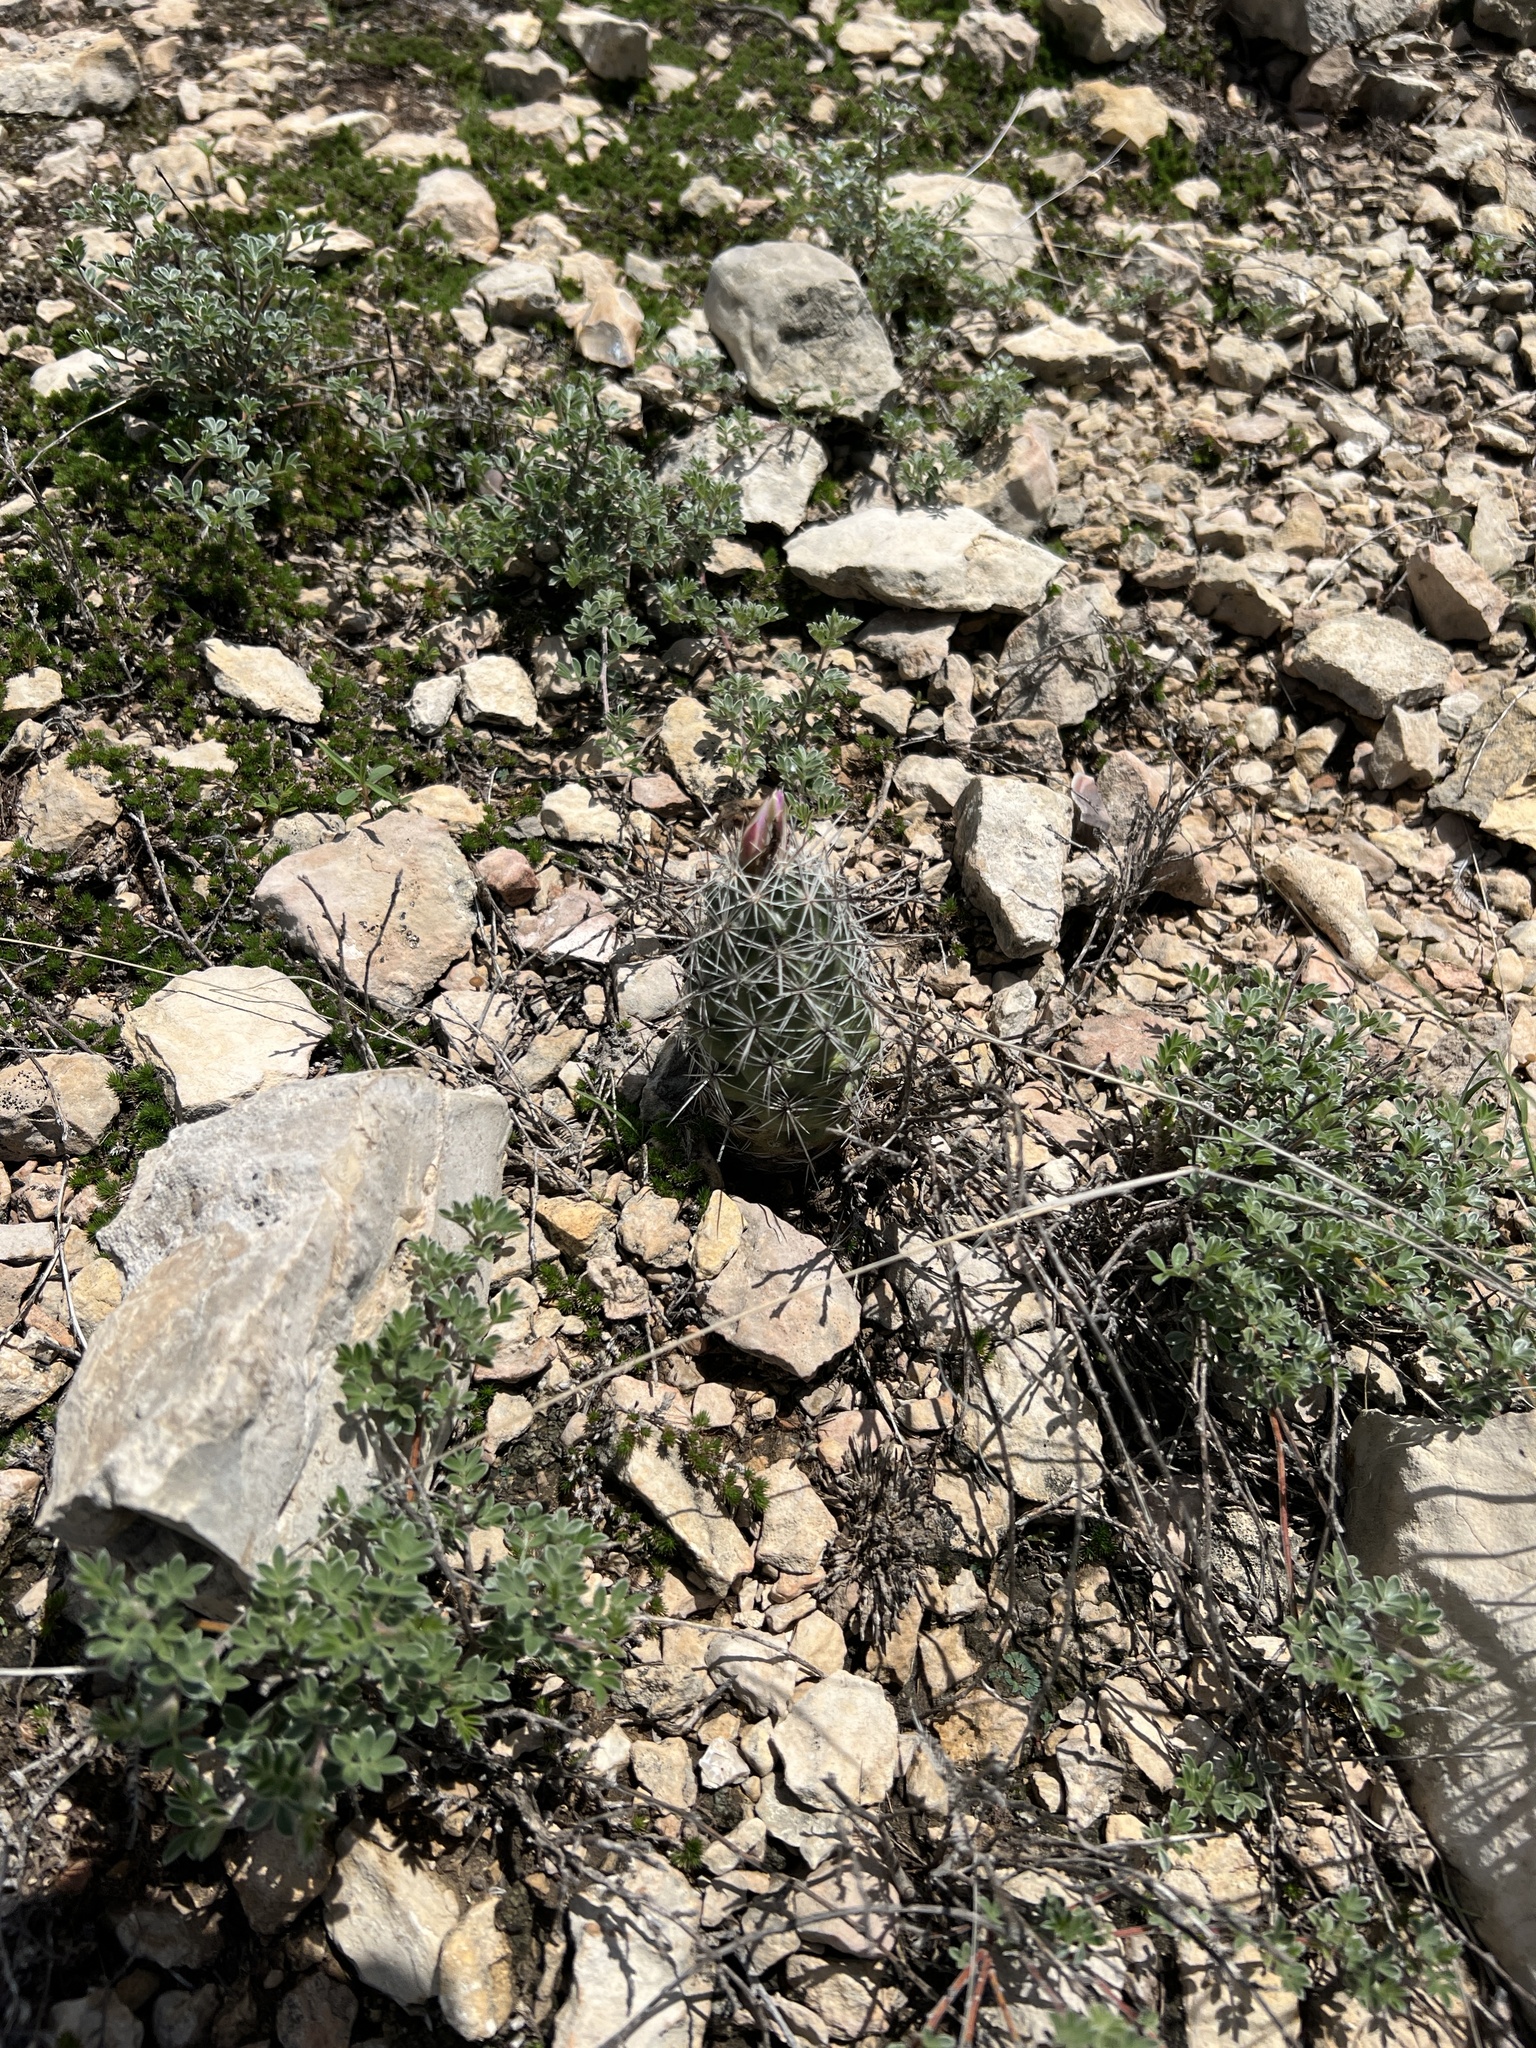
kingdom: Plantae
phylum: Tracheophyta
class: Magnoliopsida
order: Caryophyllales
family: Cactaceae
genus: Cochemiea
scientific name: Cochemiea conoidea
